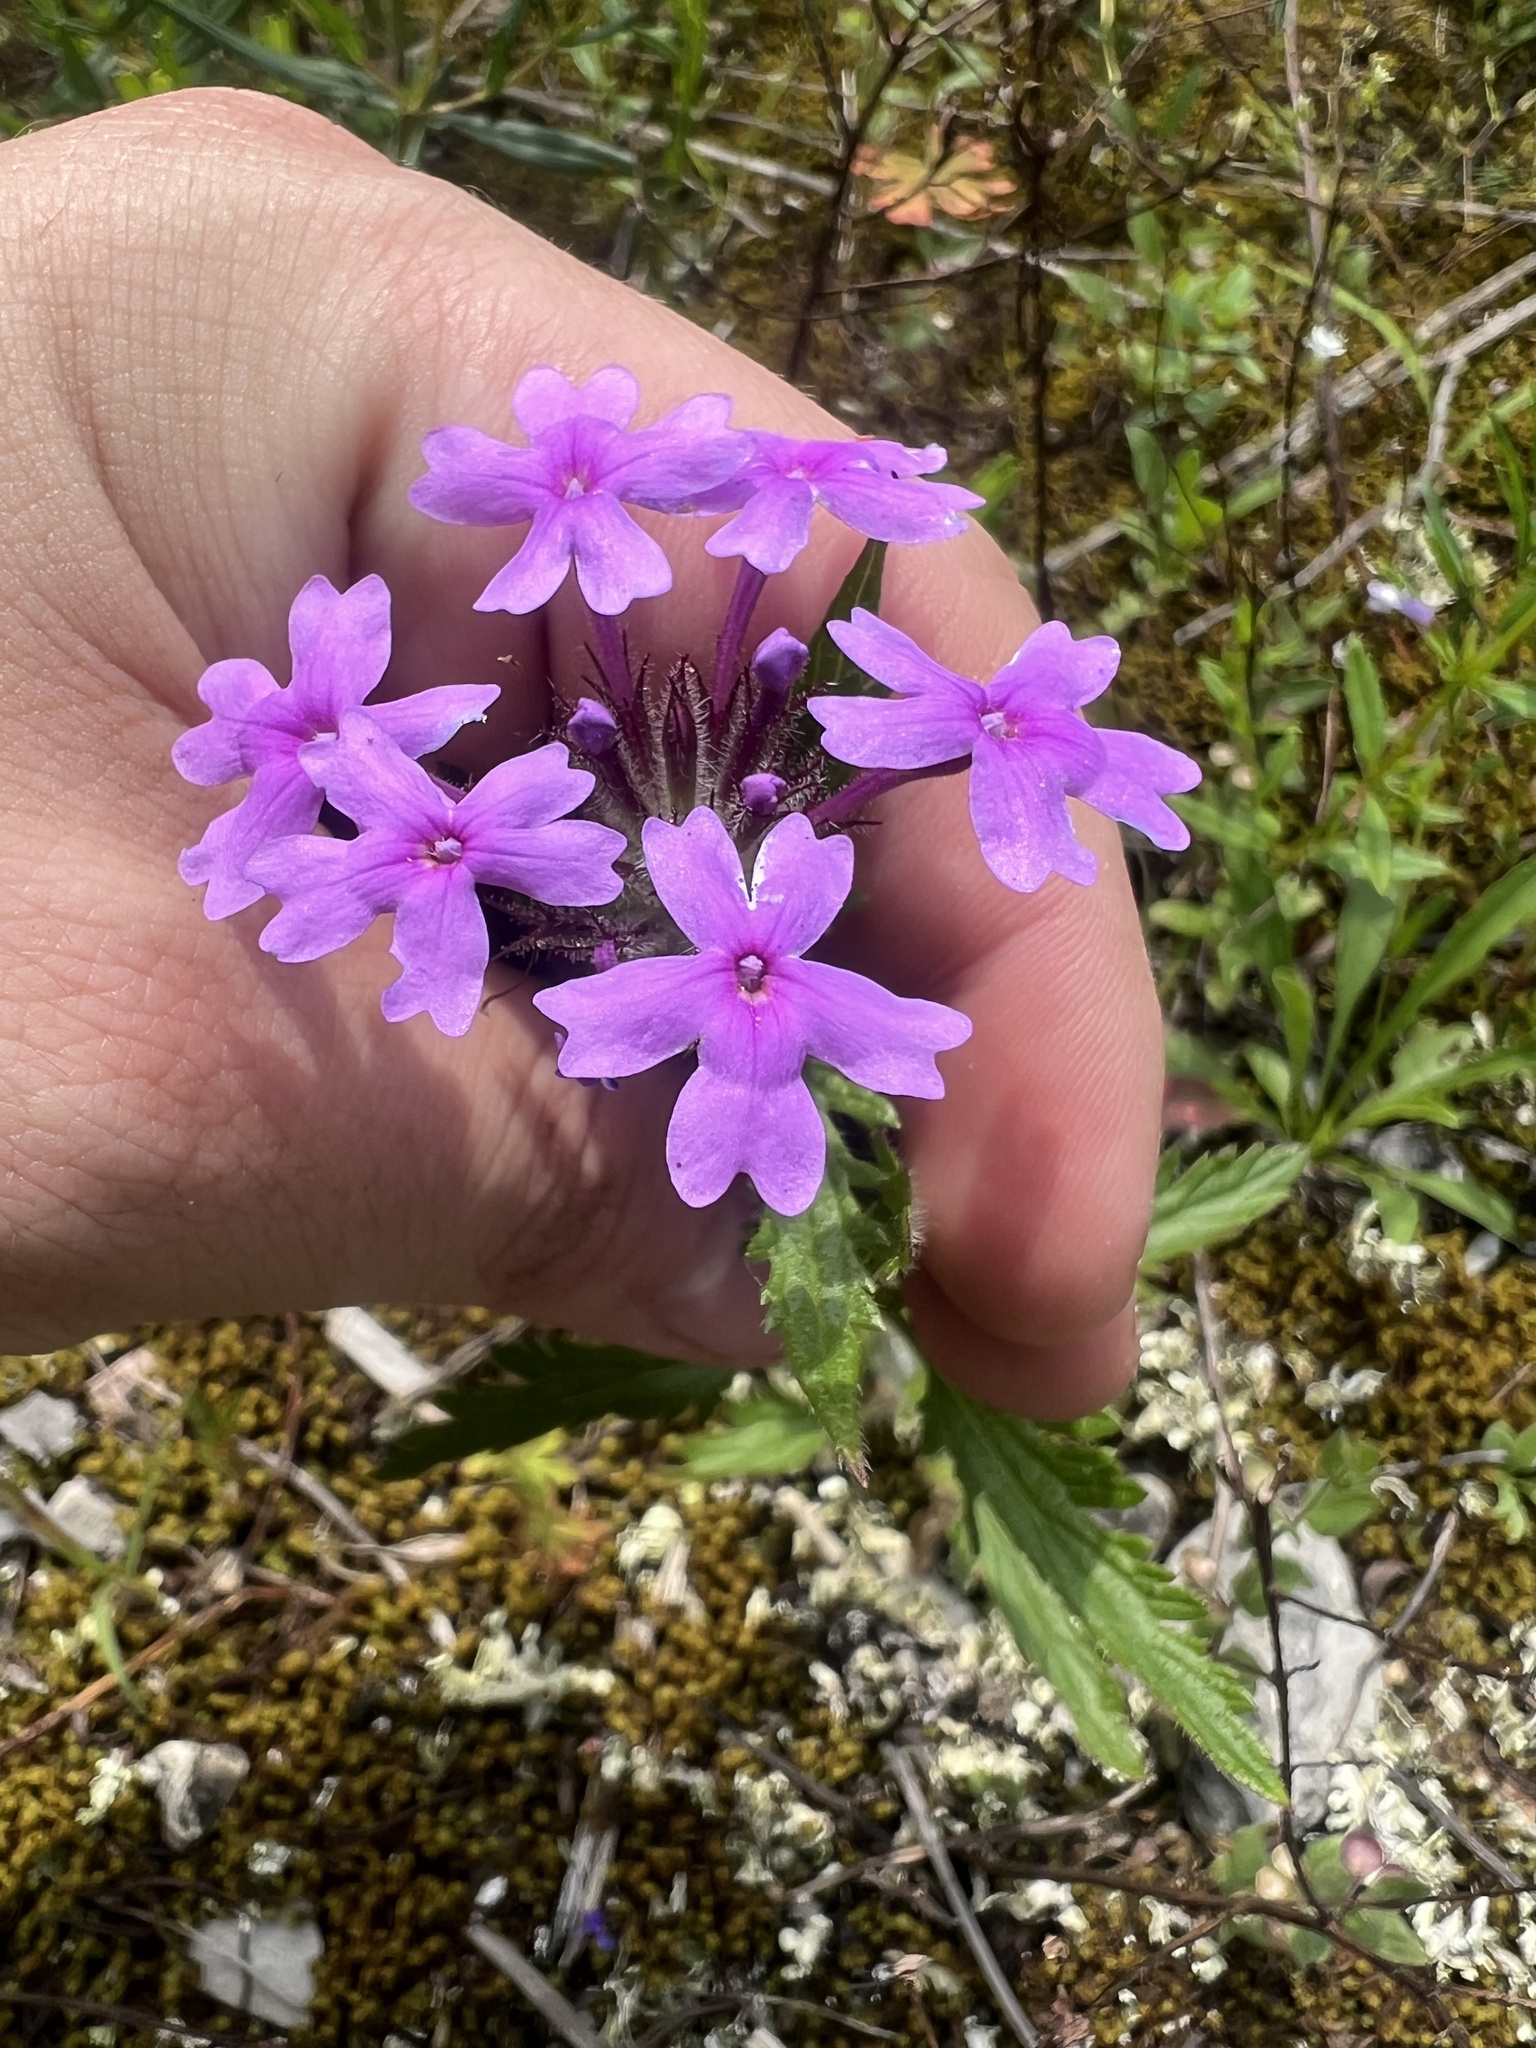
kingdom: Plantae
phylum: Tracheophyta
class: Magnoliopsida
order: Lamiales
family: Verbenaceae
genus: Verbena
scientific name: Verbena canadensis
